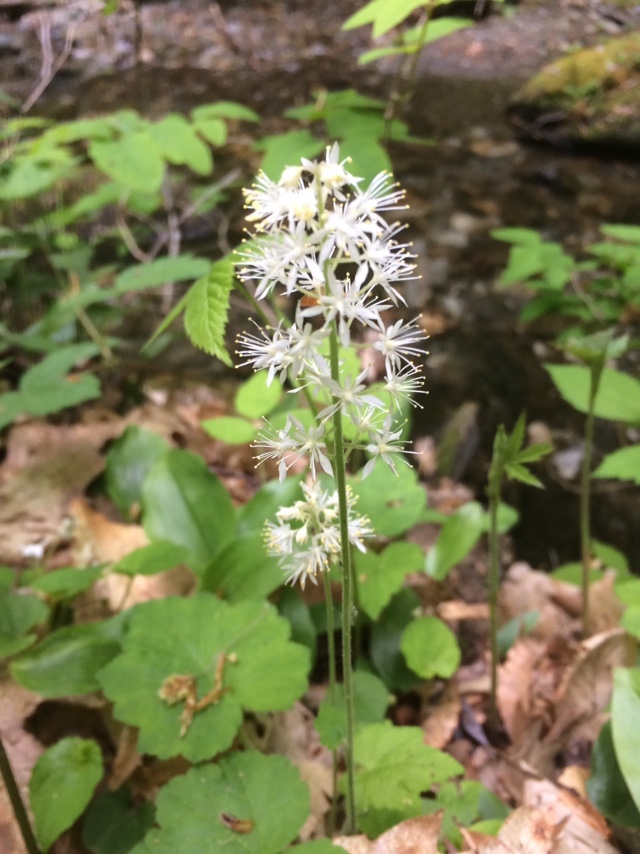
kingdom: Plantae
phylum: Tracheophyta
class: Magnoliopsida
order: Saxifragales
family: Saxifragaceae
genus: Tiarella
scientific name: Tiarella stolonifera
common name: Stoloniferous foamflower
